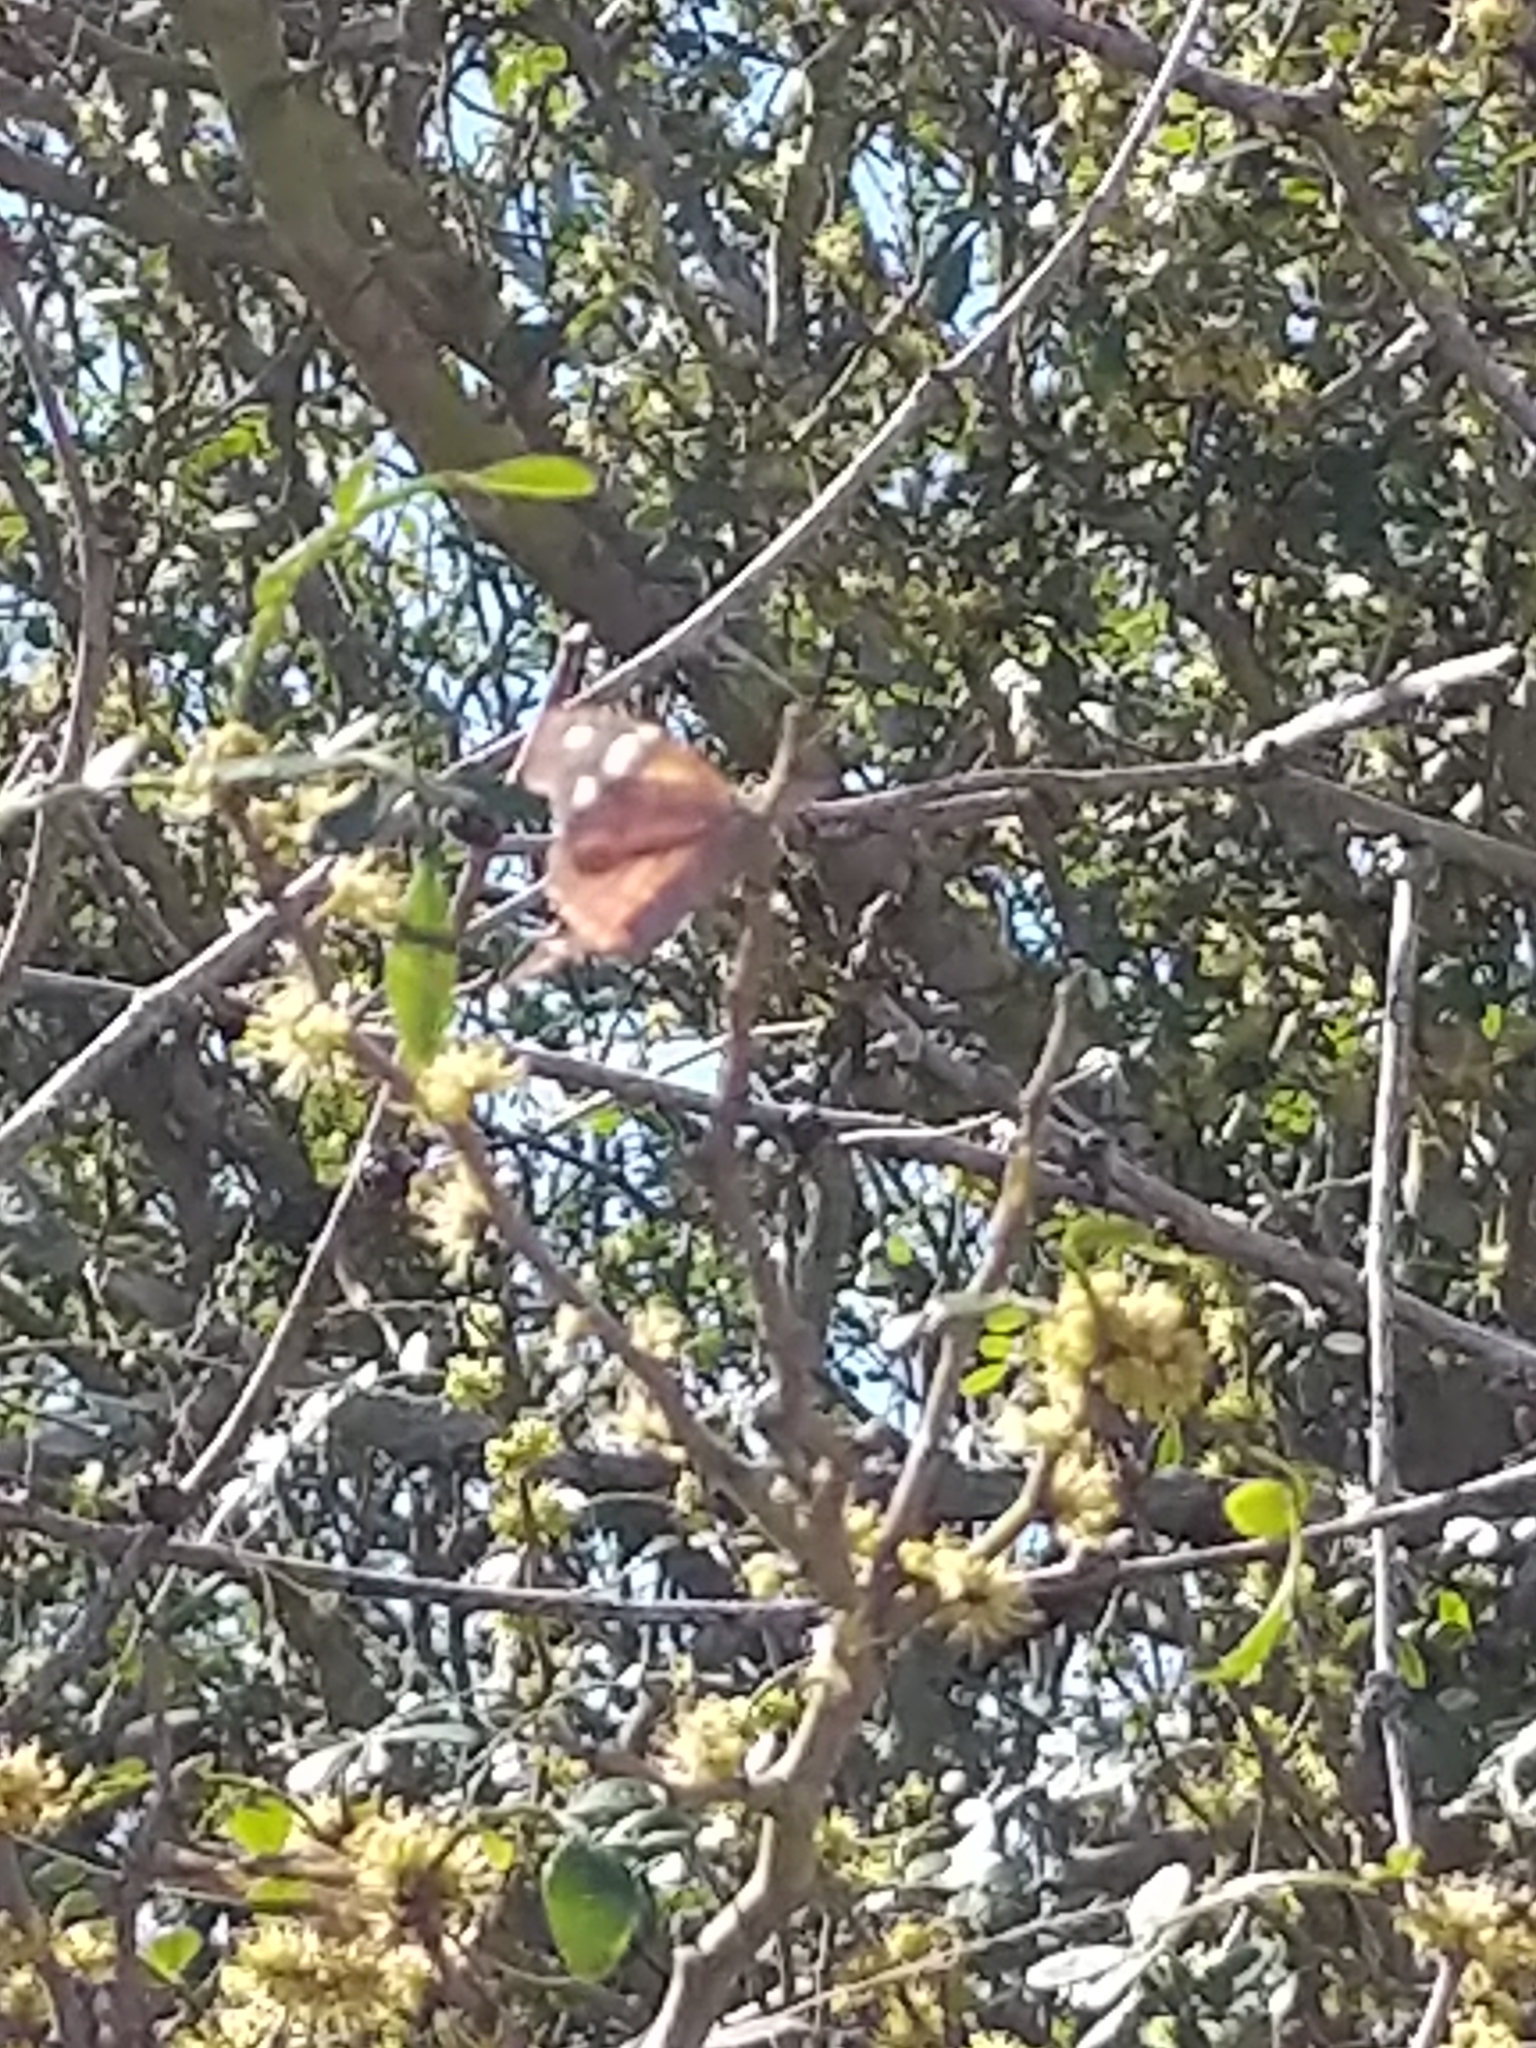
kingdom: Animalia
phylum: Arthropoda
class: Insecta
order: Lepidoptera
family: Nymphalidae
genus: Libytheana
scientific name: Libytheana carinenta
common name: American snout
